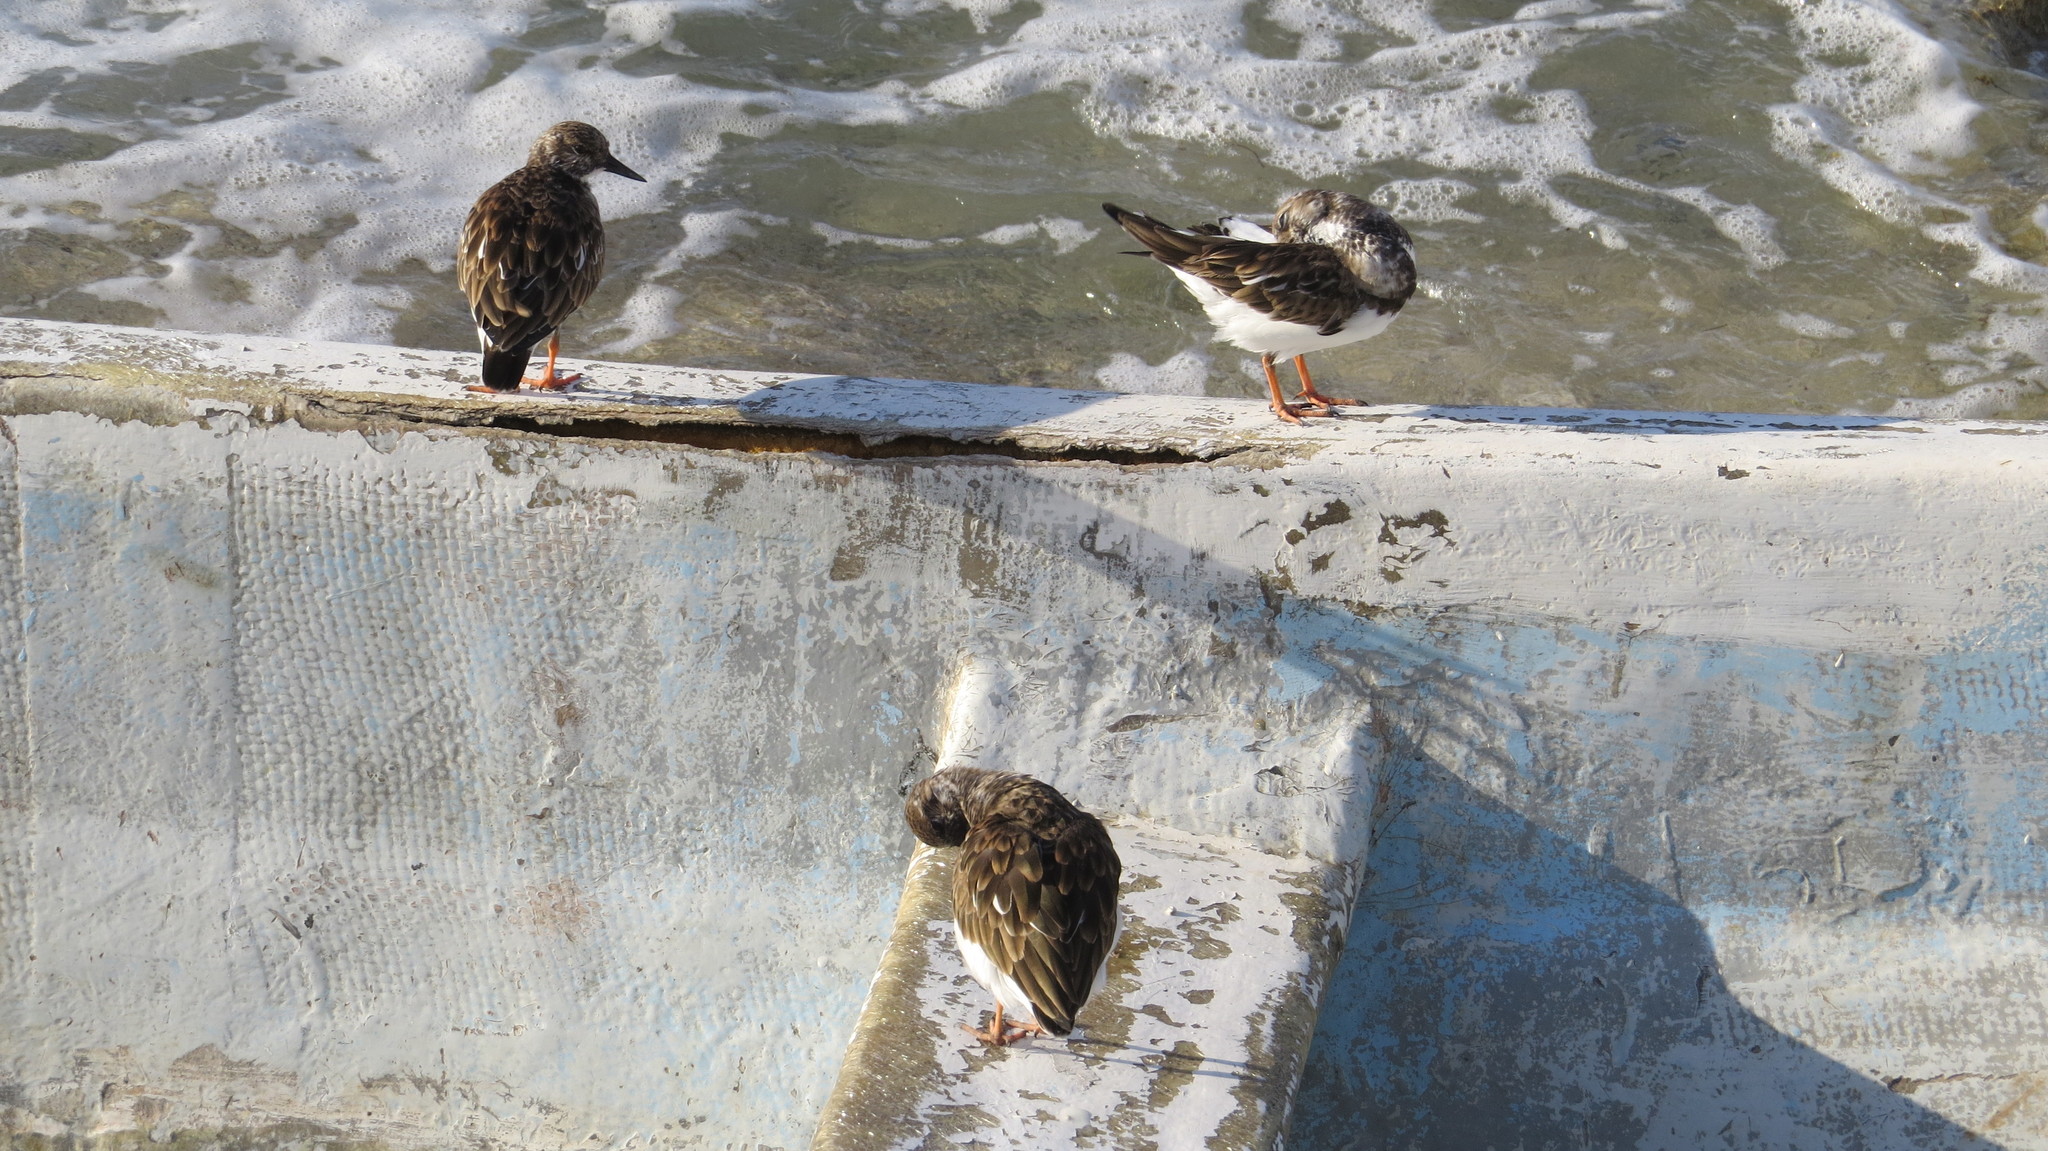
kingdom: Animalia
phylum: Chordata
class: Aves
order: Charadriiformes
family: Scolopacidae
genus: Arenaria
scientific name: Arenaria interpres
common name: Ruddy turnstone
